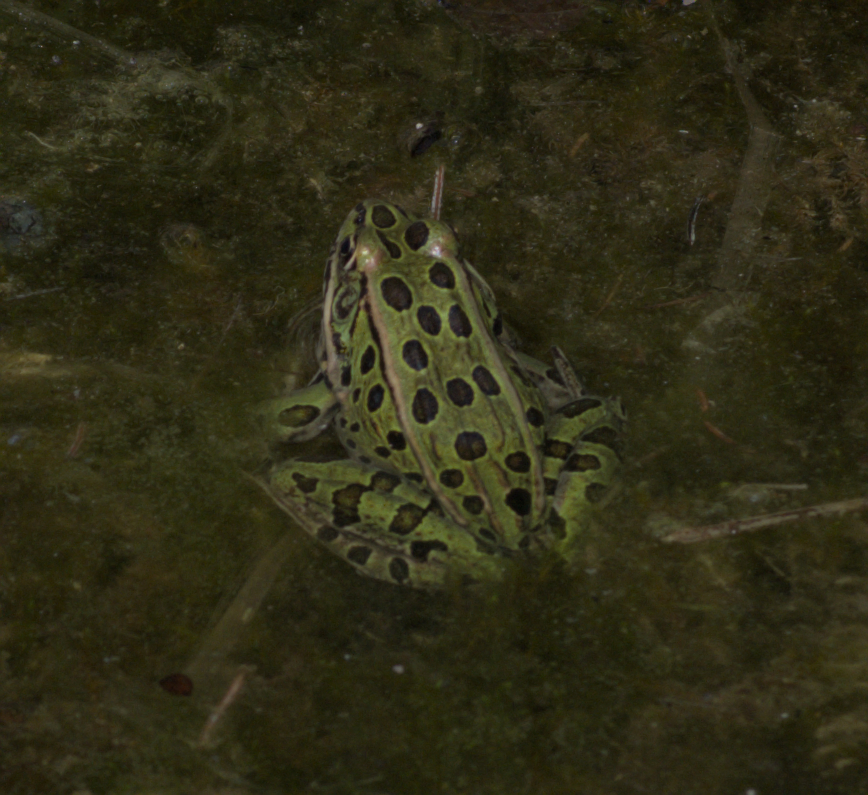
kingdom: Animalia
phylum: Chordata
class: Amphibia
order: Anura
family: Ranidae
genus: Lithobates
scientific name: Lithobates pipiens
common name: Northern leopard frog
